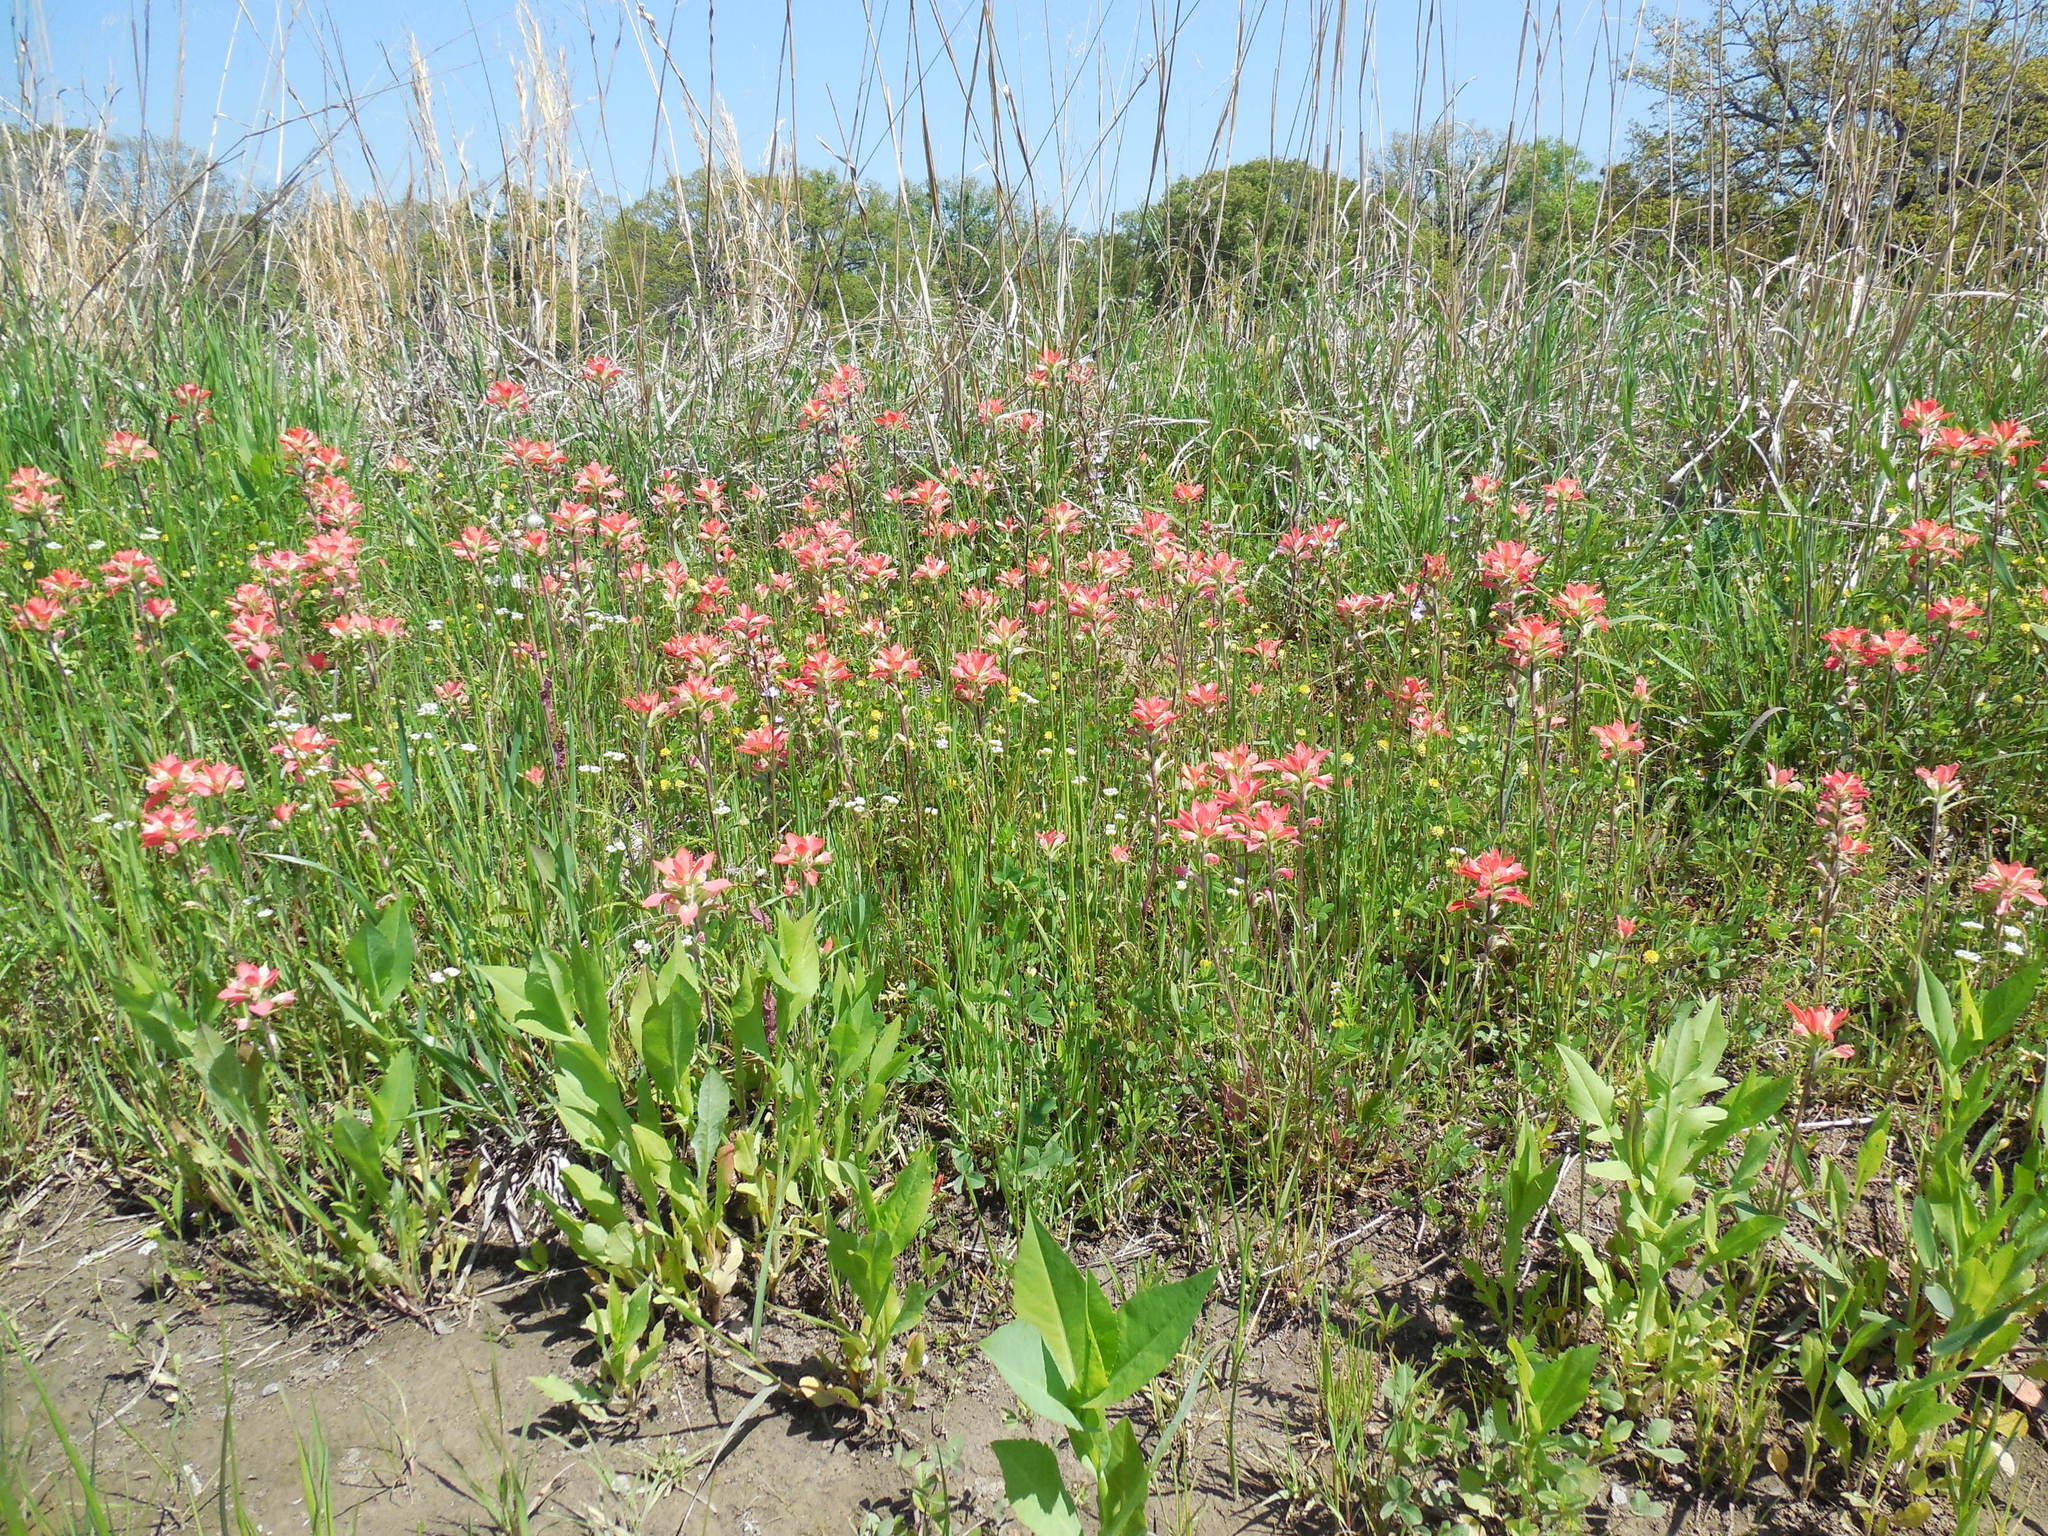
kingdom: Plantae
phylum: Tracheophyta
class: Magnoliopsida
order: Lamiales
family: Orobanchaceae
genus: Castilleja
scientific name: Castilleja indivisa
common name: Texas paintbrush
